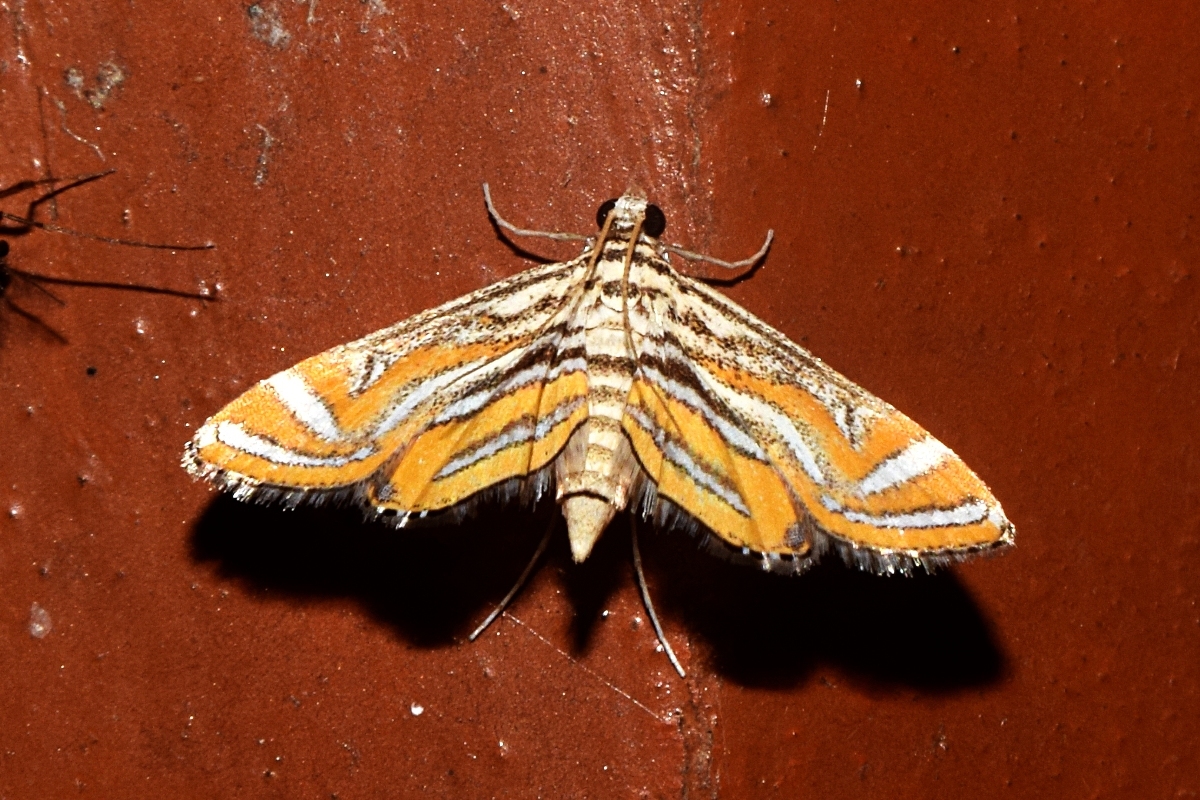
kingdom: Animalia
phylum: Arthropoda
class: Insecta
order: Lepidoptera
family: Crambidae
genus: Parapoynx
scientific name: Parapoynx bilinealis
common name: Streaked china-mark
